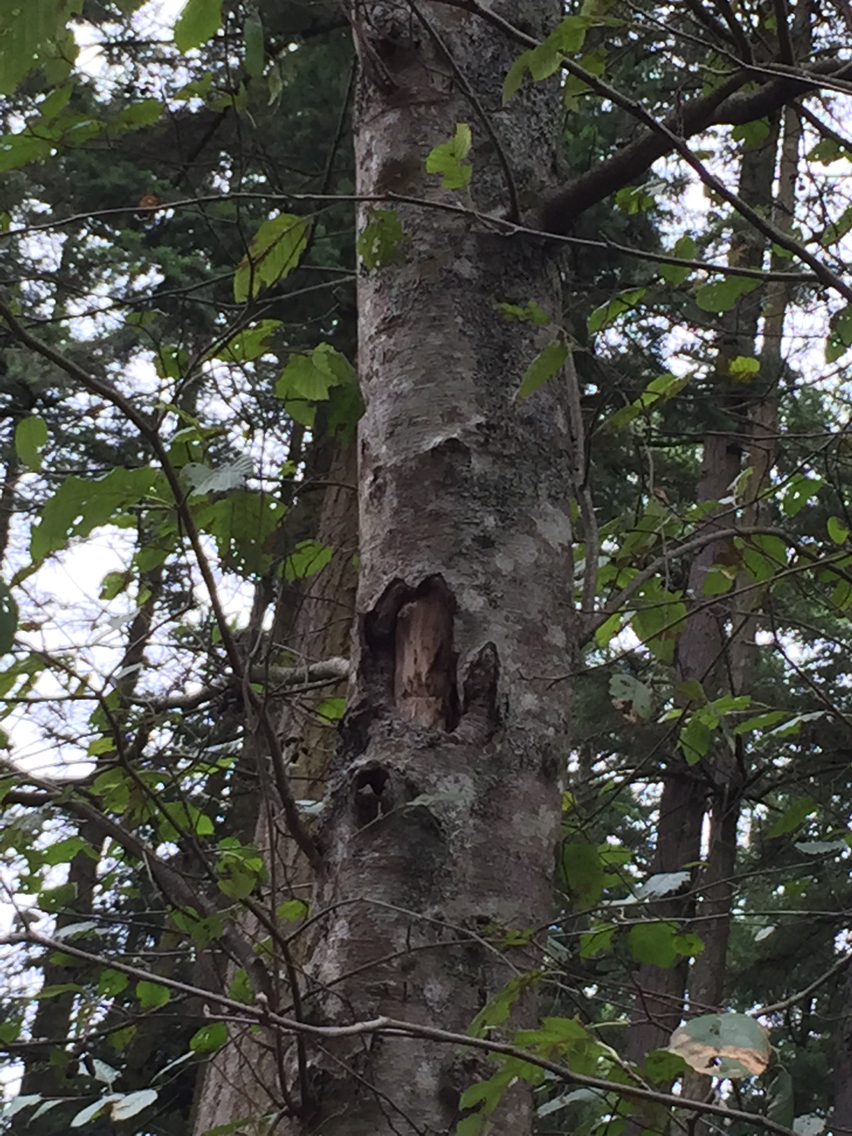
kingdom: Plantae
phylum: Tracheophyta
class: Magnoliopsida
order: Fagales
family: Betulaceae
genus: Alnus
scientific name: Alnus rubra
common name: Red alder
